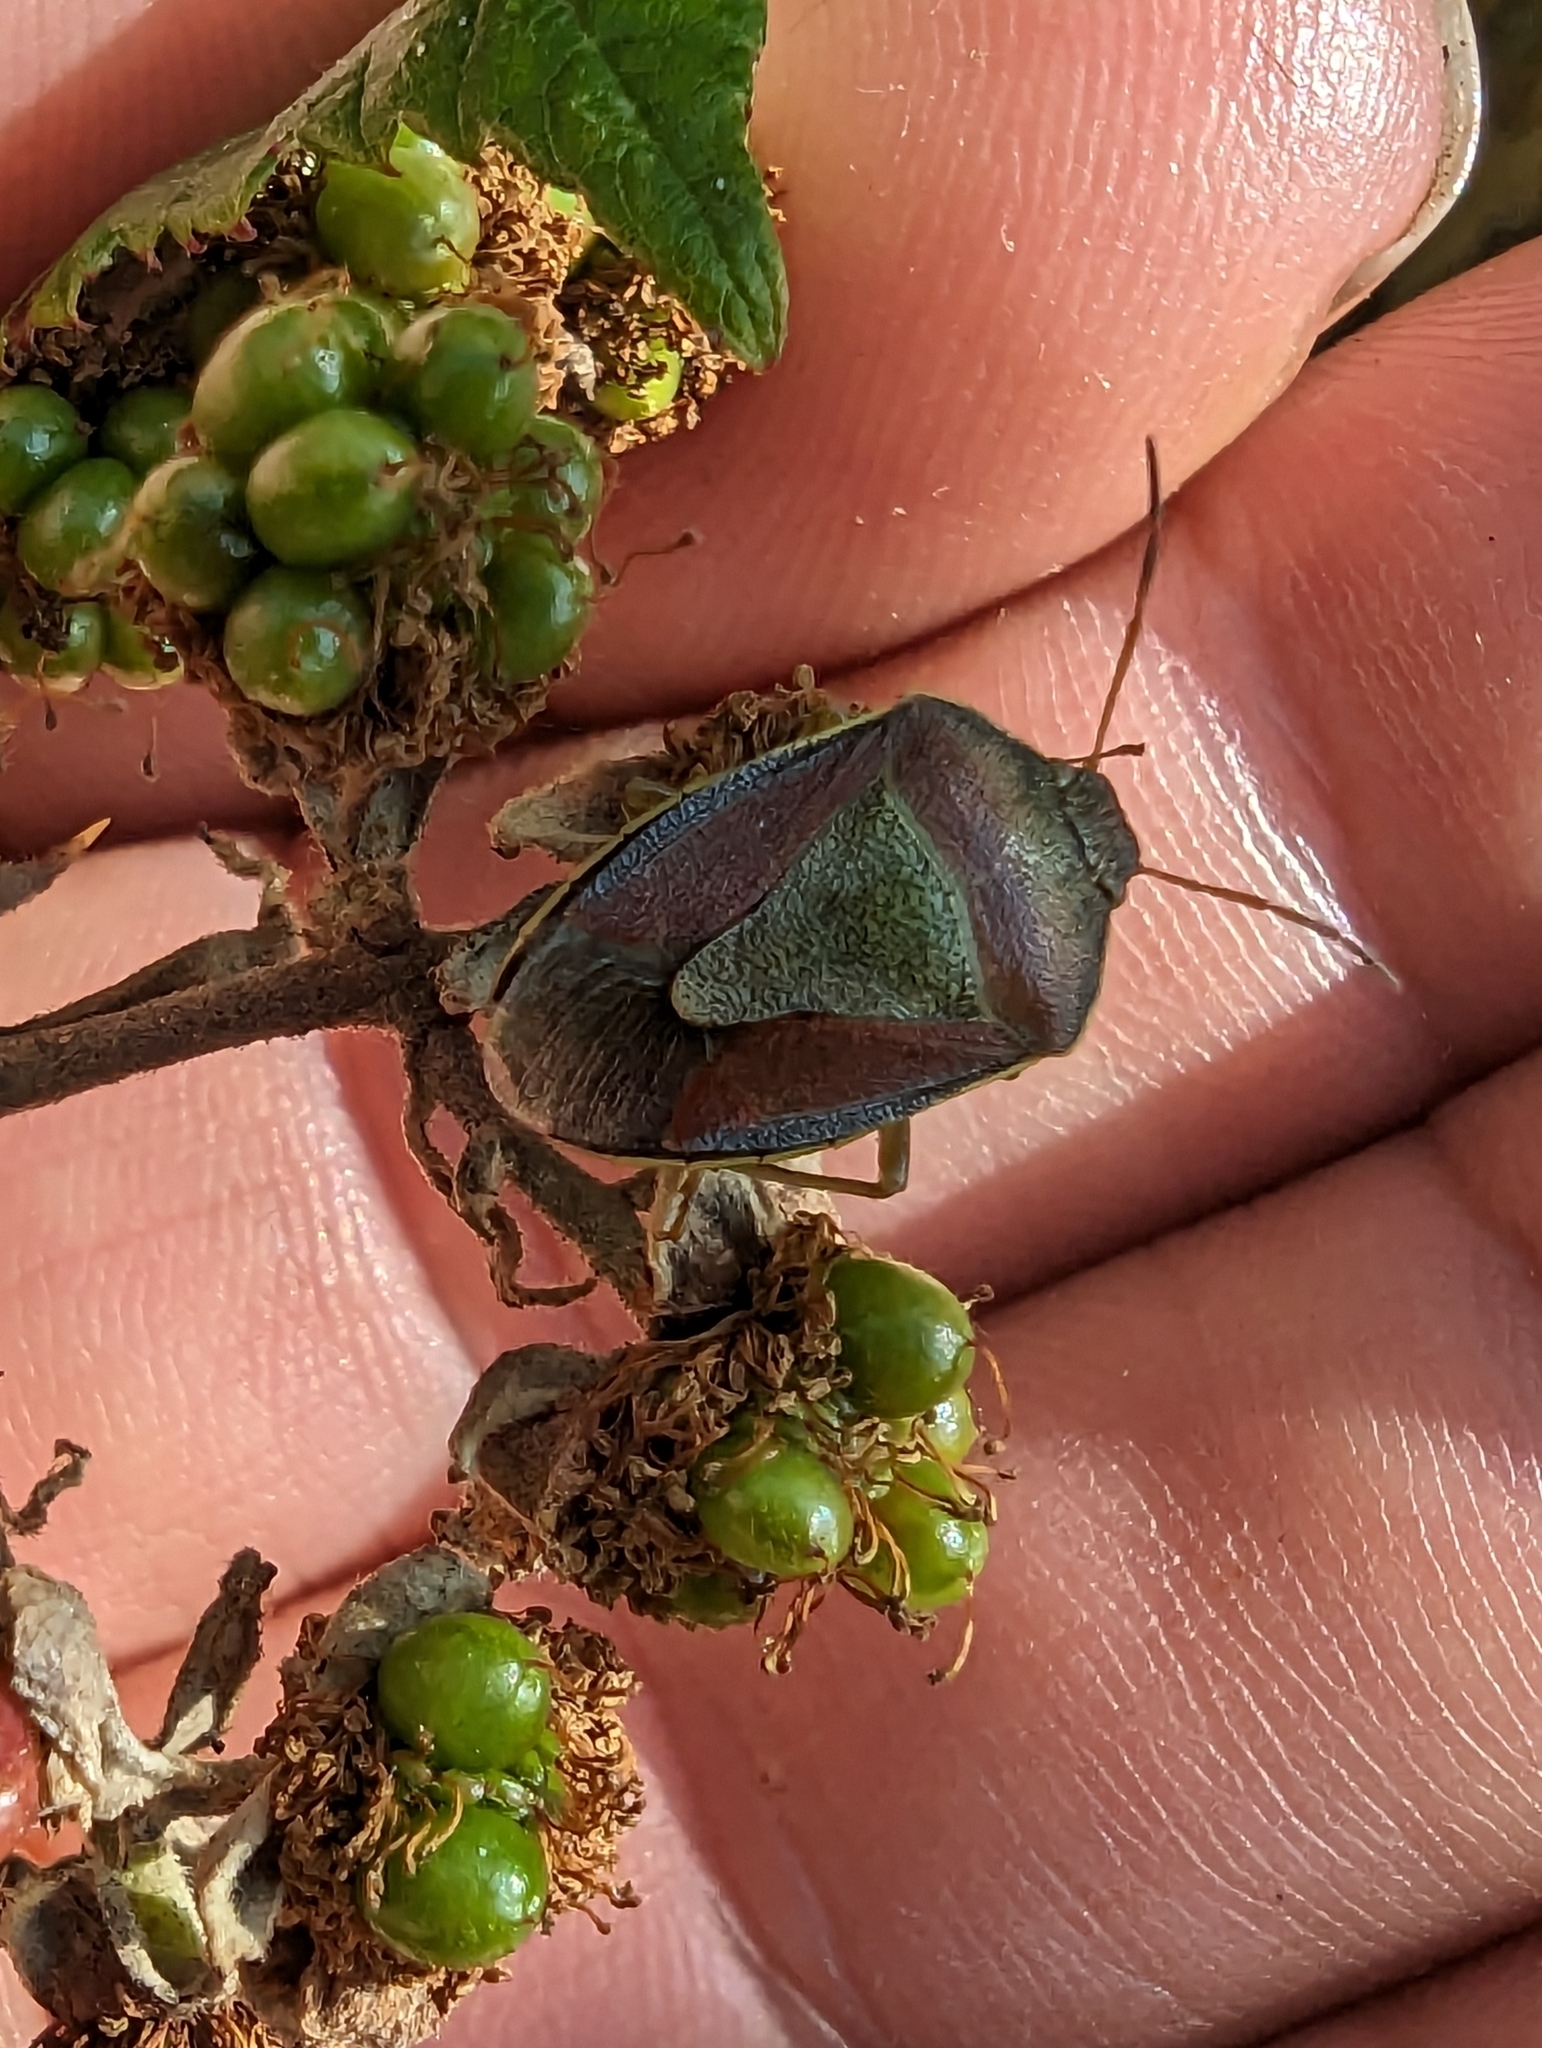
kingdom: Animalia
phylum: Arthropoda
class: Insecta
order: Hemiptera
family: Pentatomidae
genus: Piezodorus
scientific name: Piezodorus lituratus
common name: Stink bug
